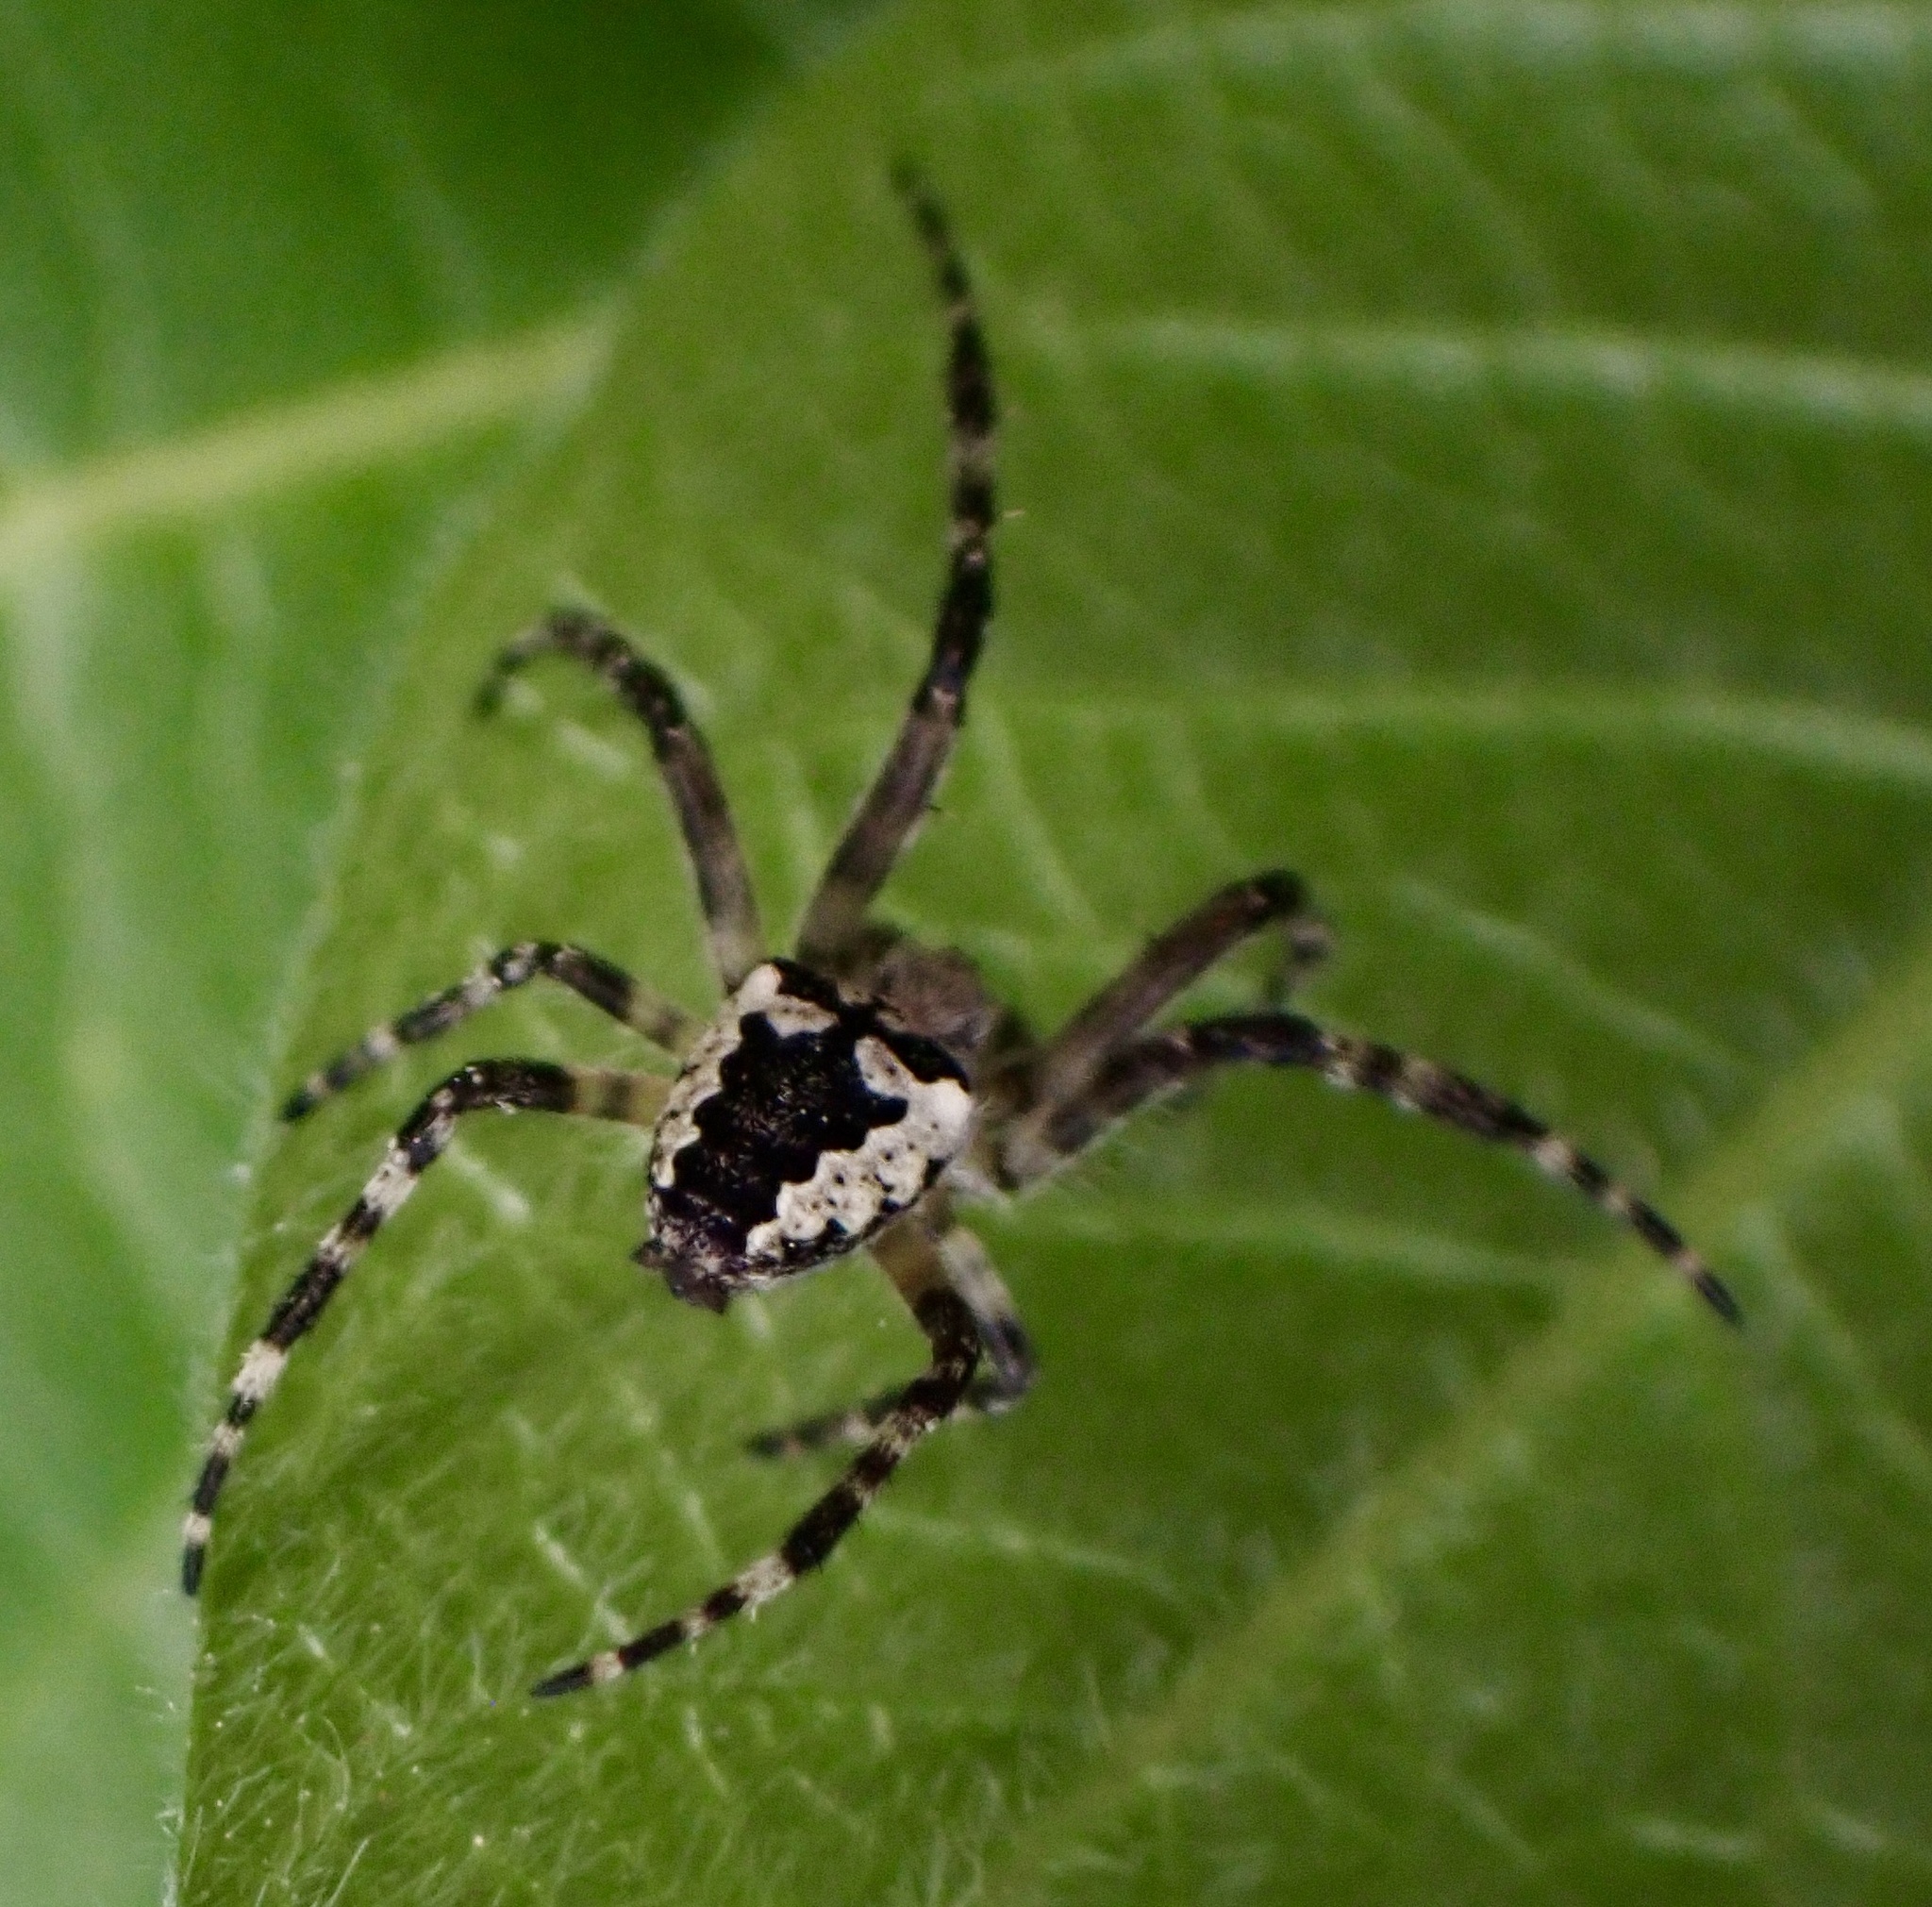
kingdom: Animalia
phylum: Arthropoda
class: Arachnida
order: Araneae
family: Araneidae
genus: Araneus
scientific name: Araneus nordmanni
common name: Nordmann's orbweaver
